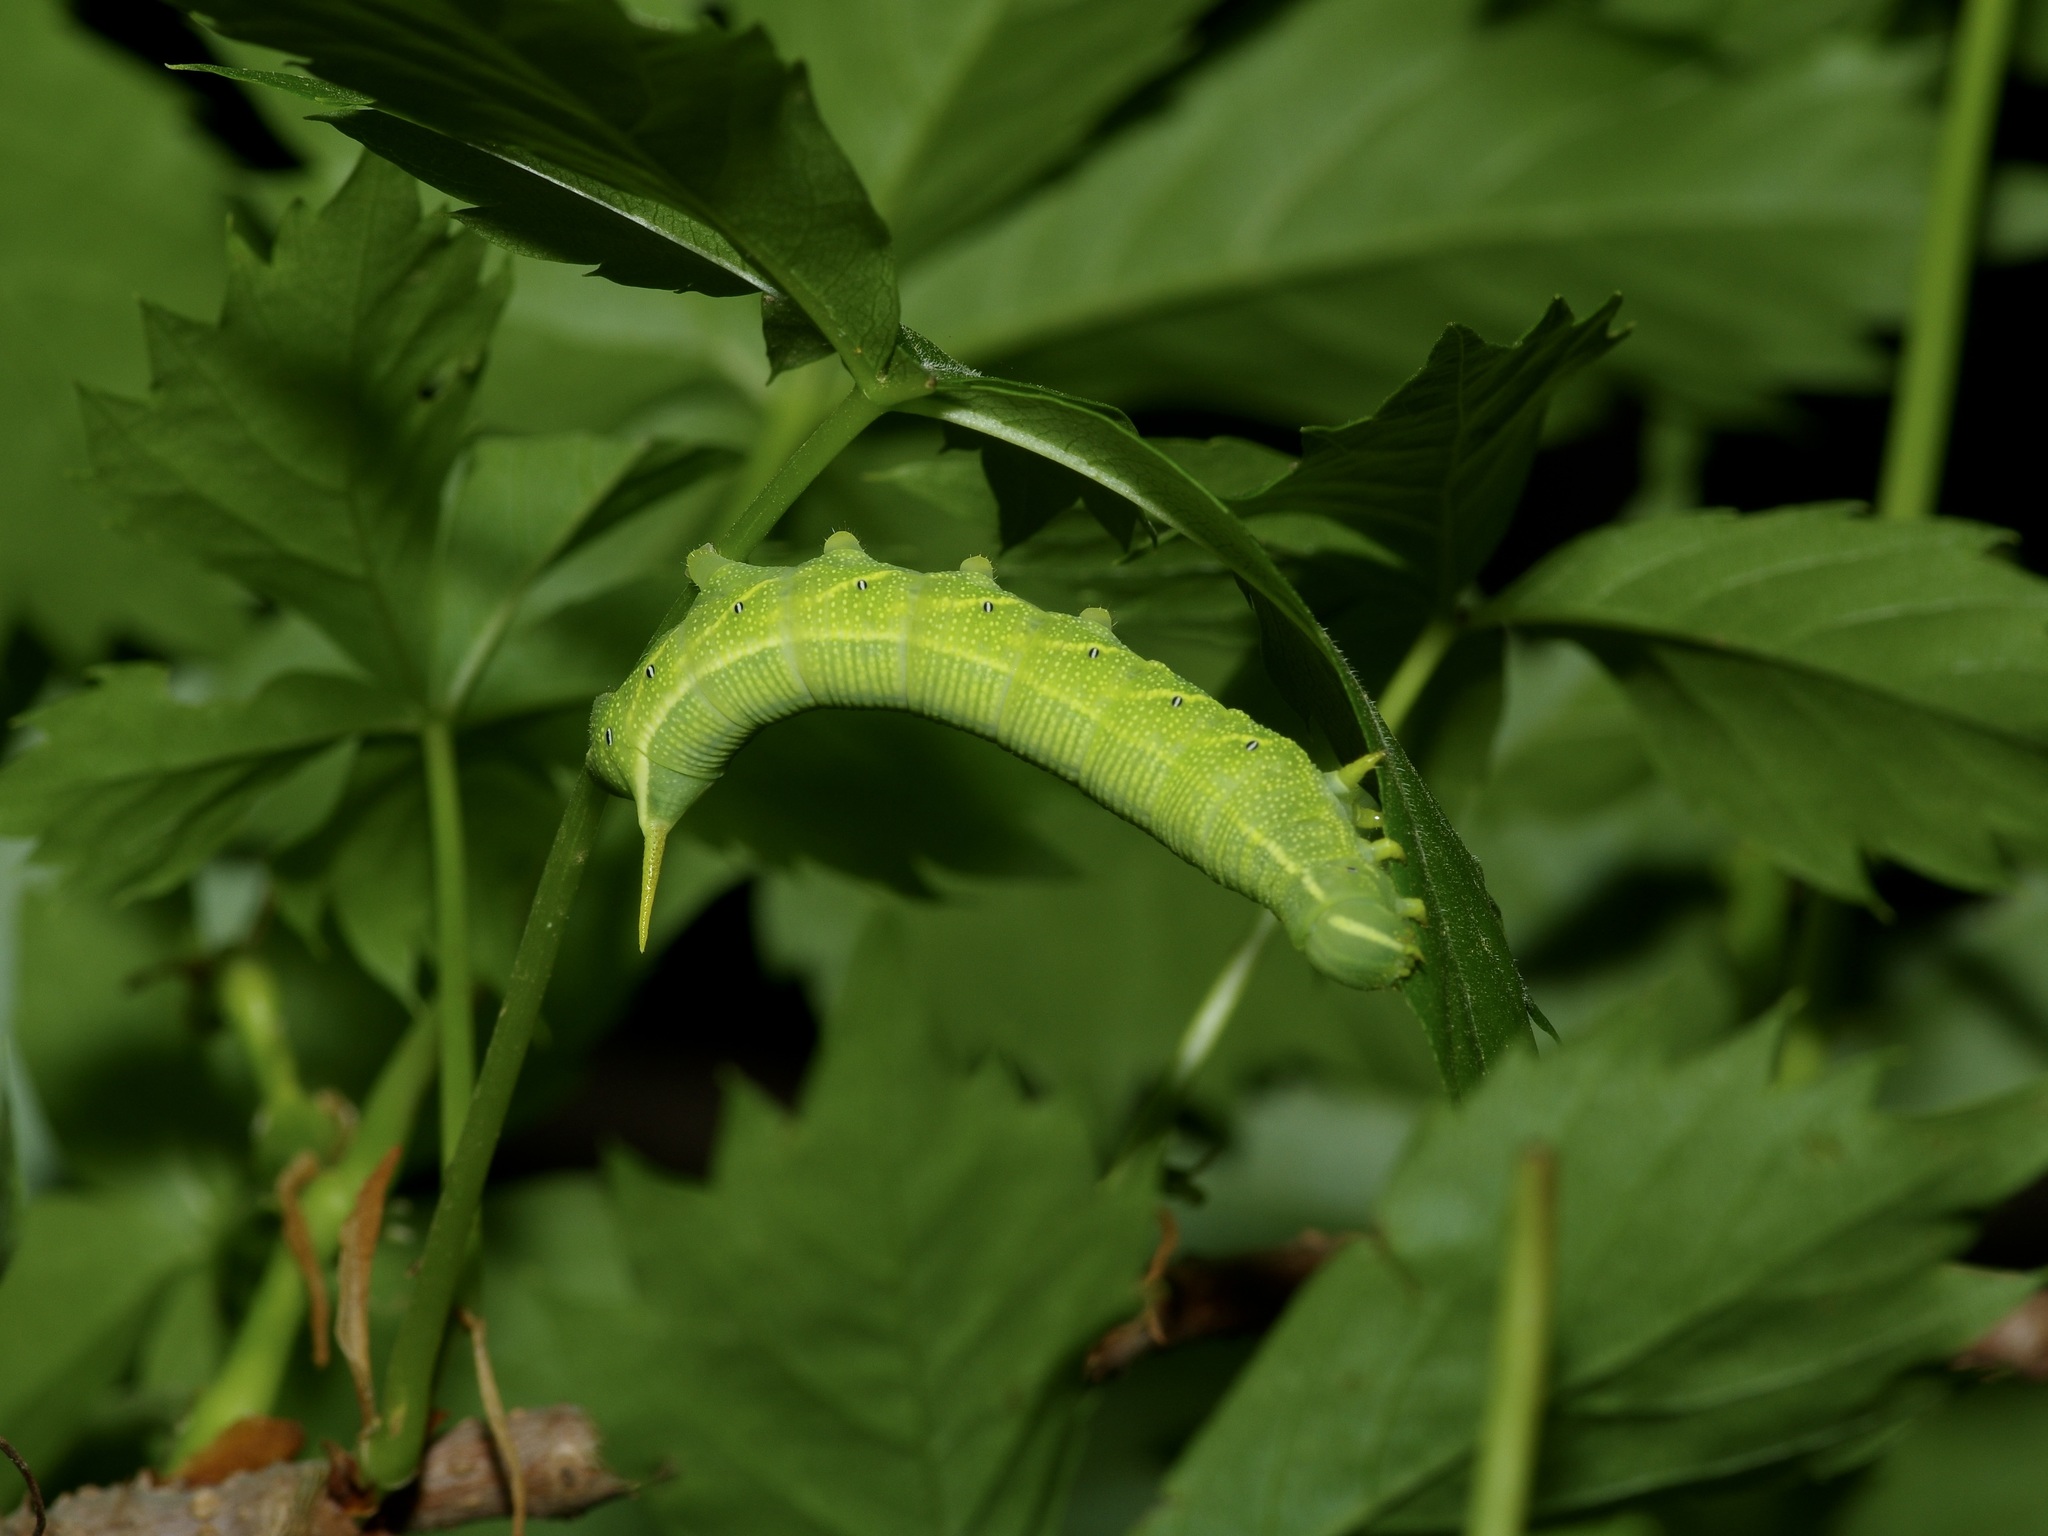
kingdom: Animalia
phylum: Arthropoda
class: Insecta
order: Lepidoptera
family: Sphingidae
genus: Deidamia
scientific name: Deidamia inscriptum
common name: Lettered sphinx
